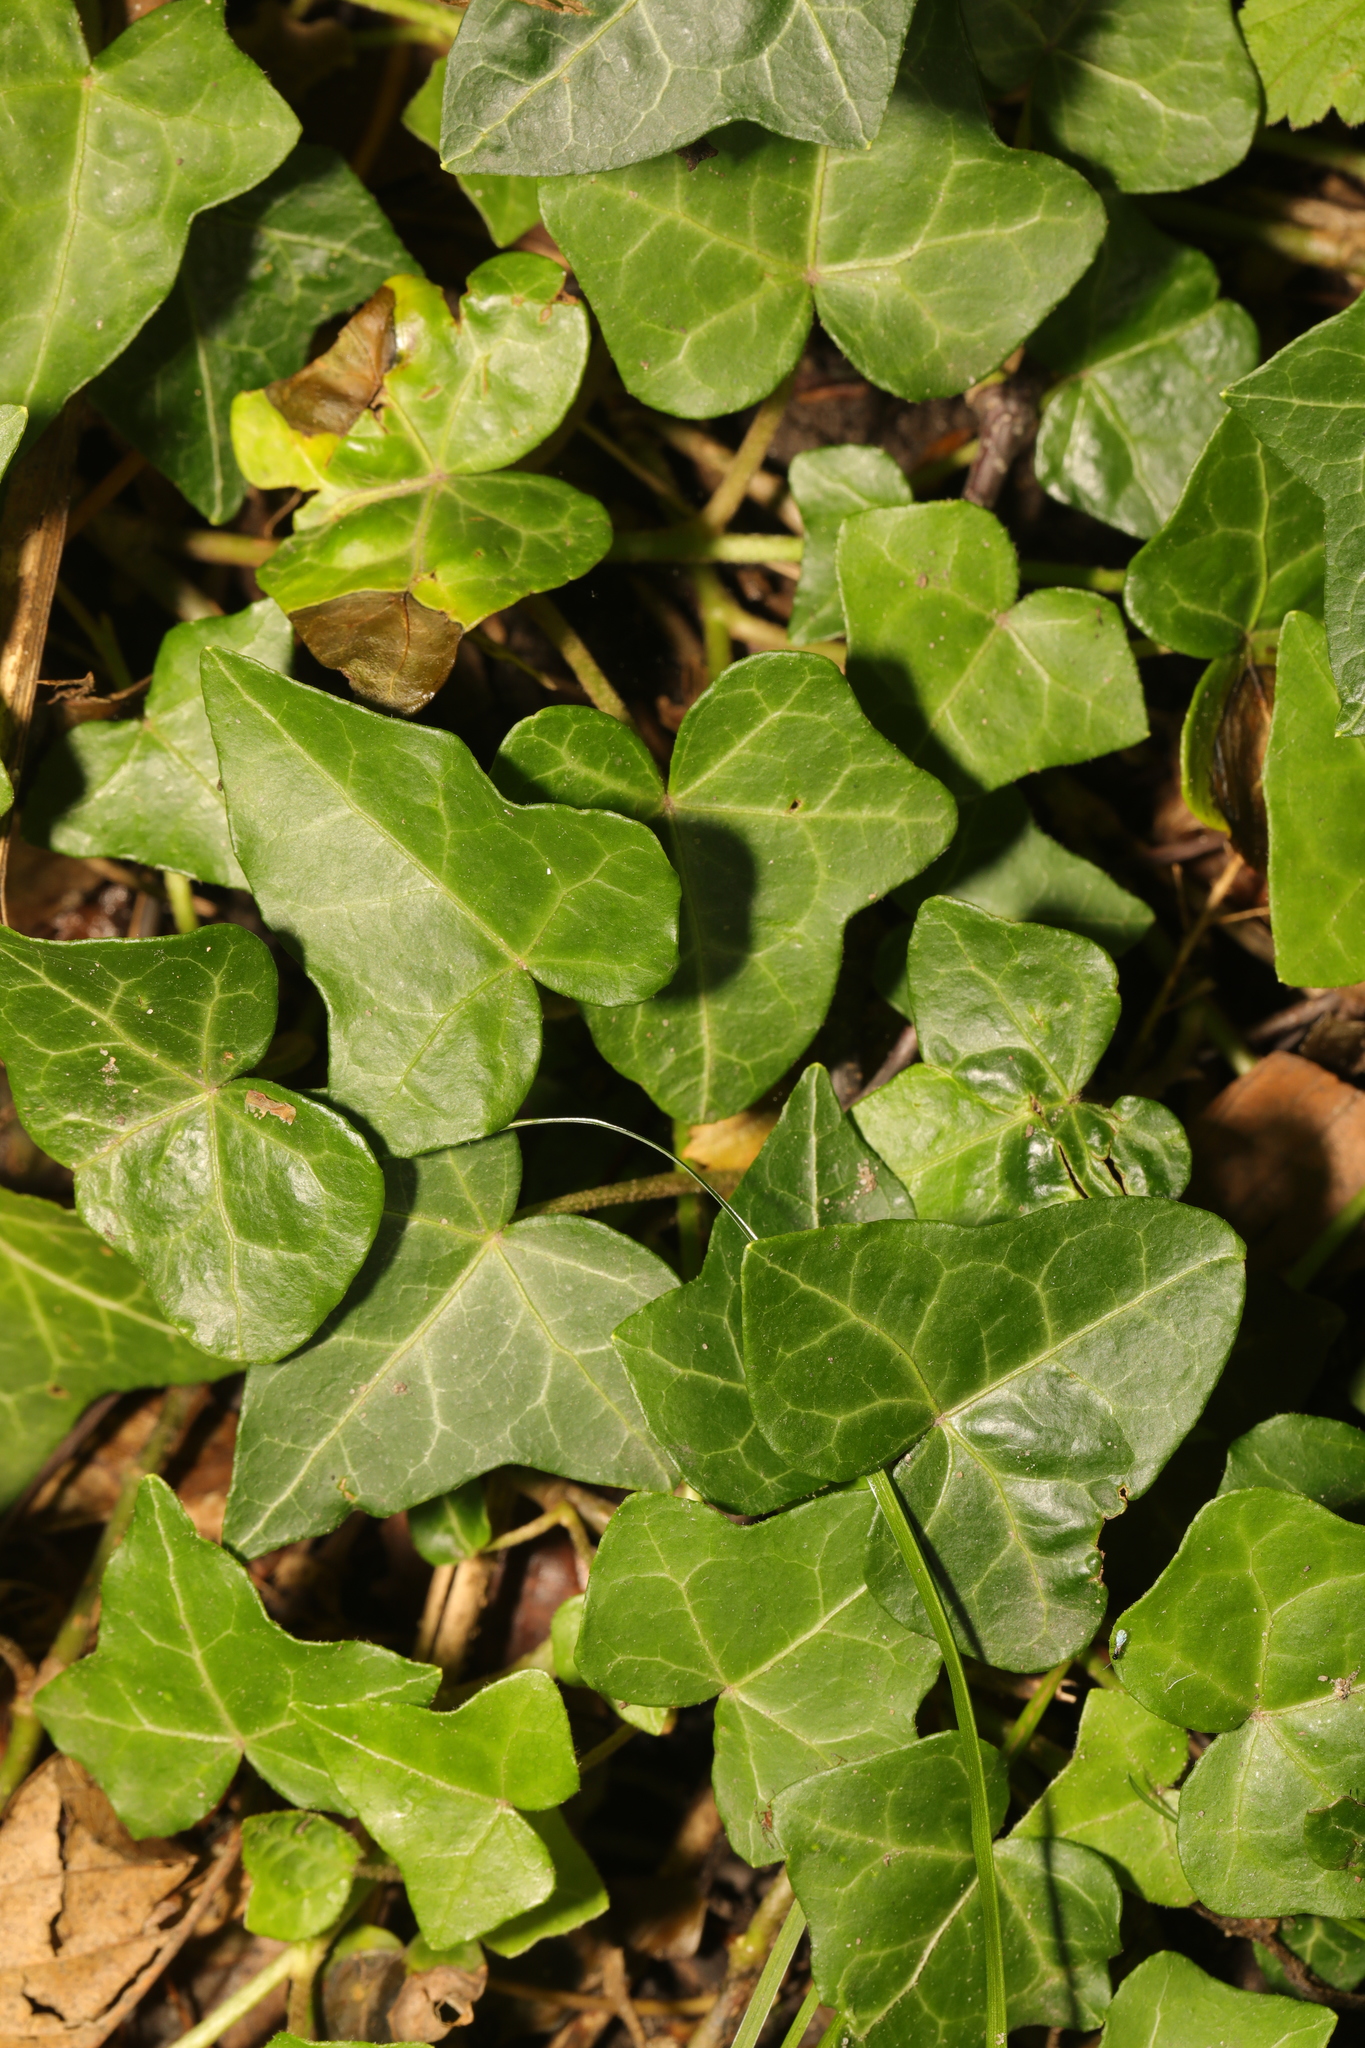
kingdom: Plantae
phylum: Tracheophyta
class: Magnoliopsida
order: Apiales
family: Araliaceae
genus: Hedera
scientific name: Hedera helix
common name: Ivy
